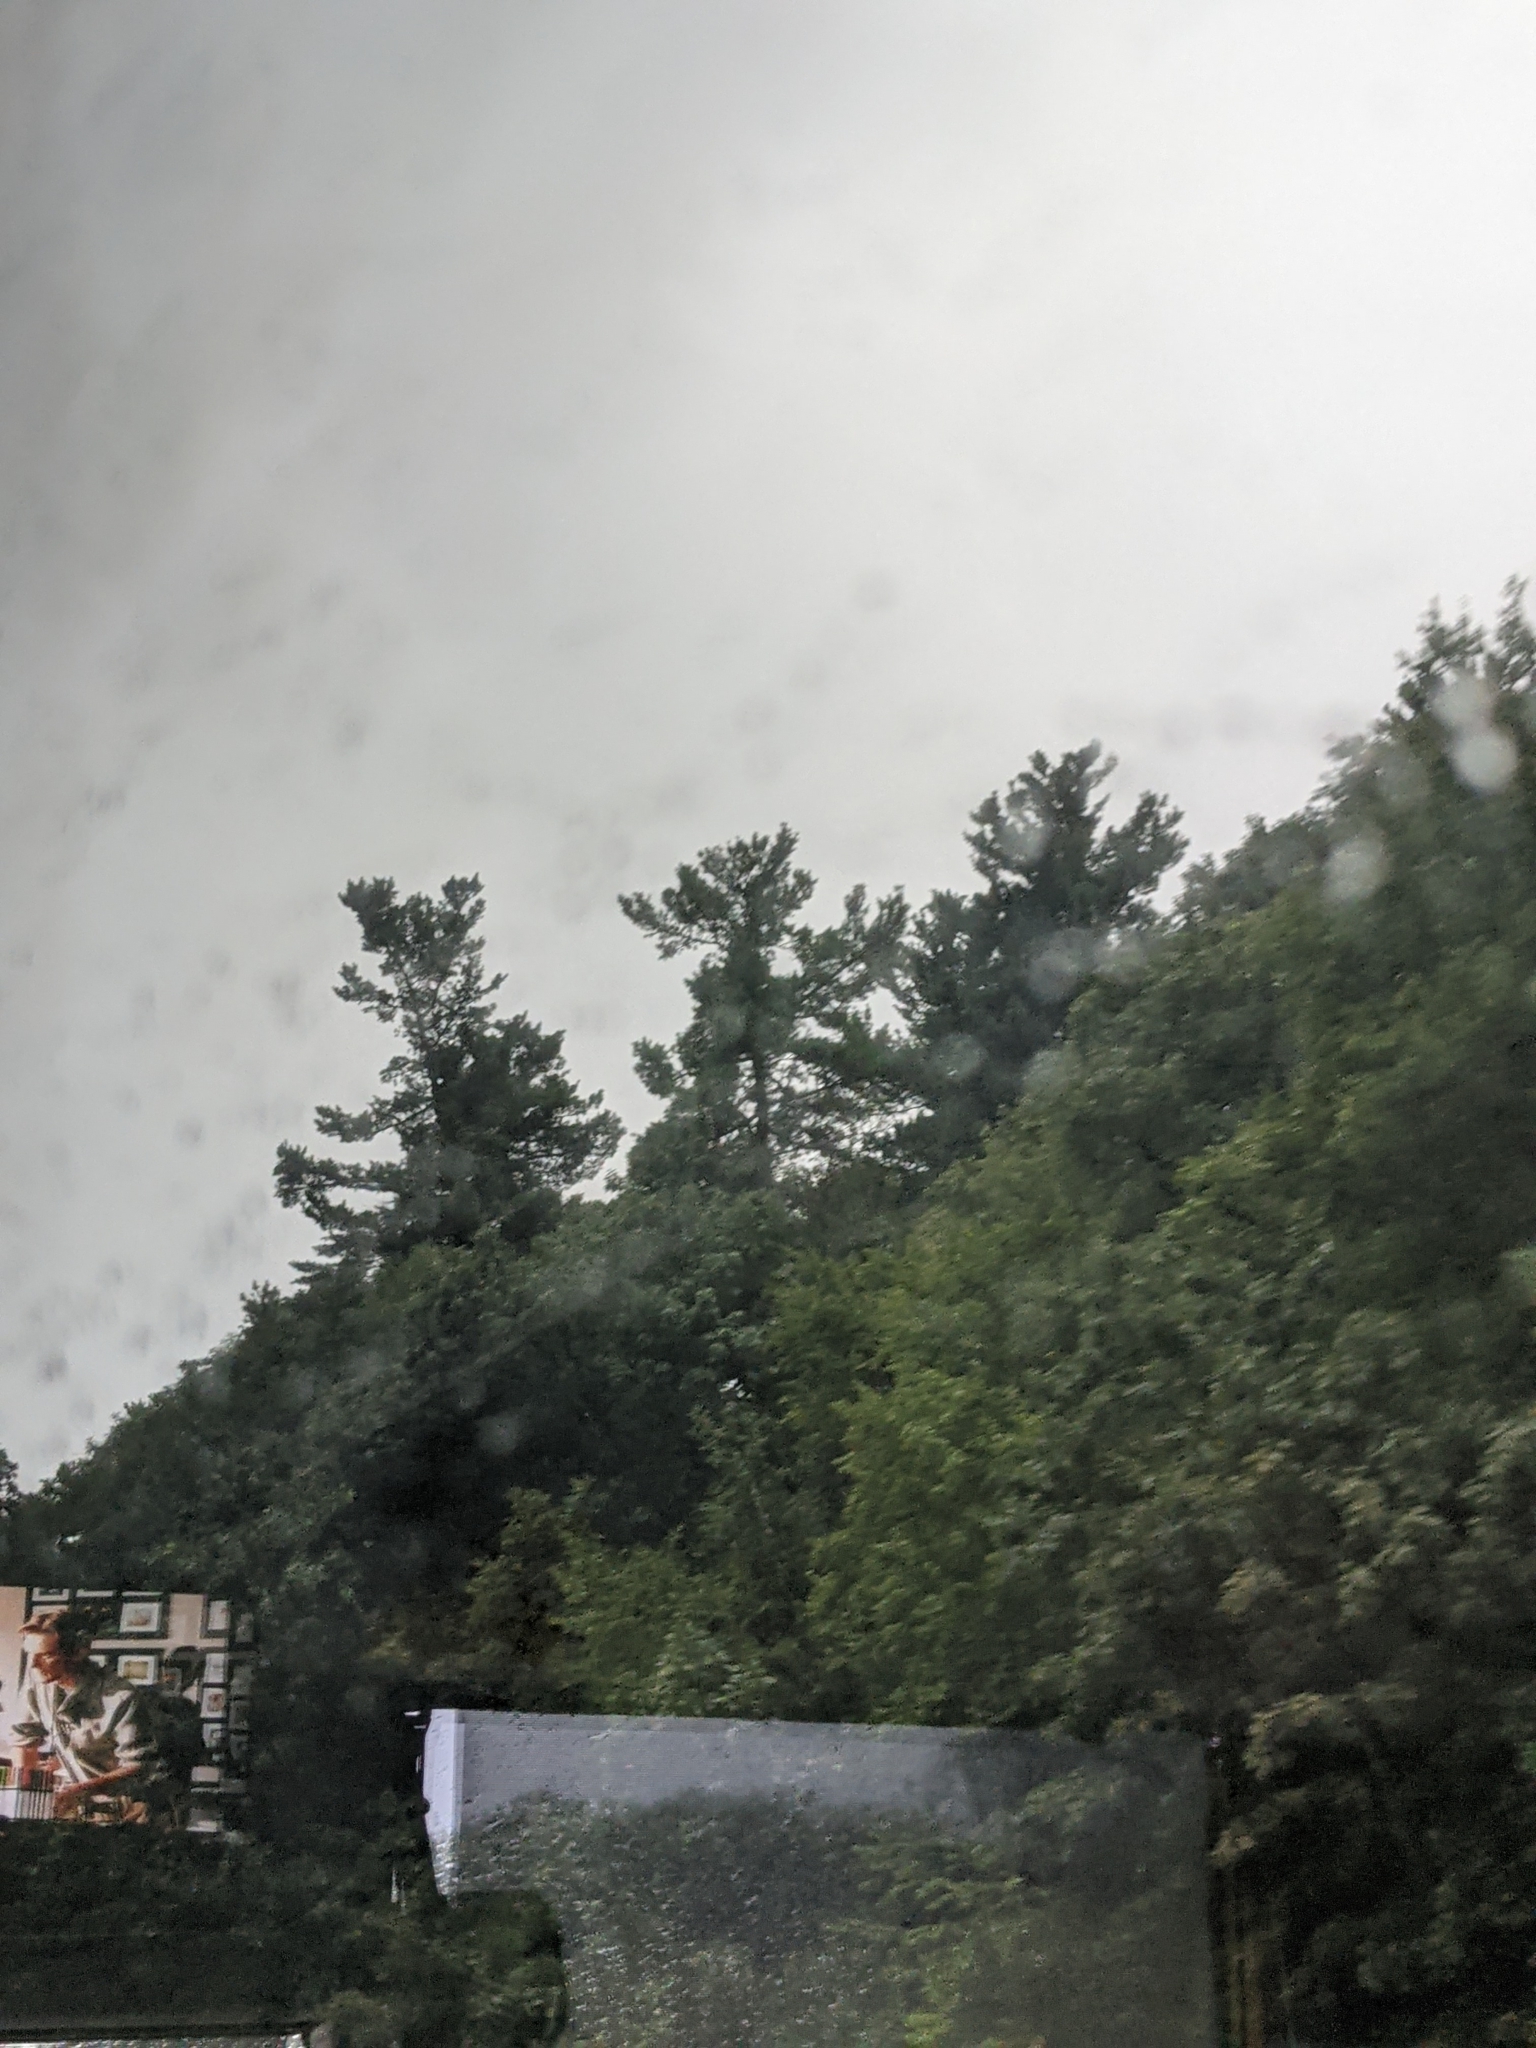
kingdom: Plantae
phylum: Tracheophyta
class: Pinopsida
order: Pinales
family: Pinaceae
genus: Pinus
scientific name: Pinus strobus
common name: Weymouth pine
